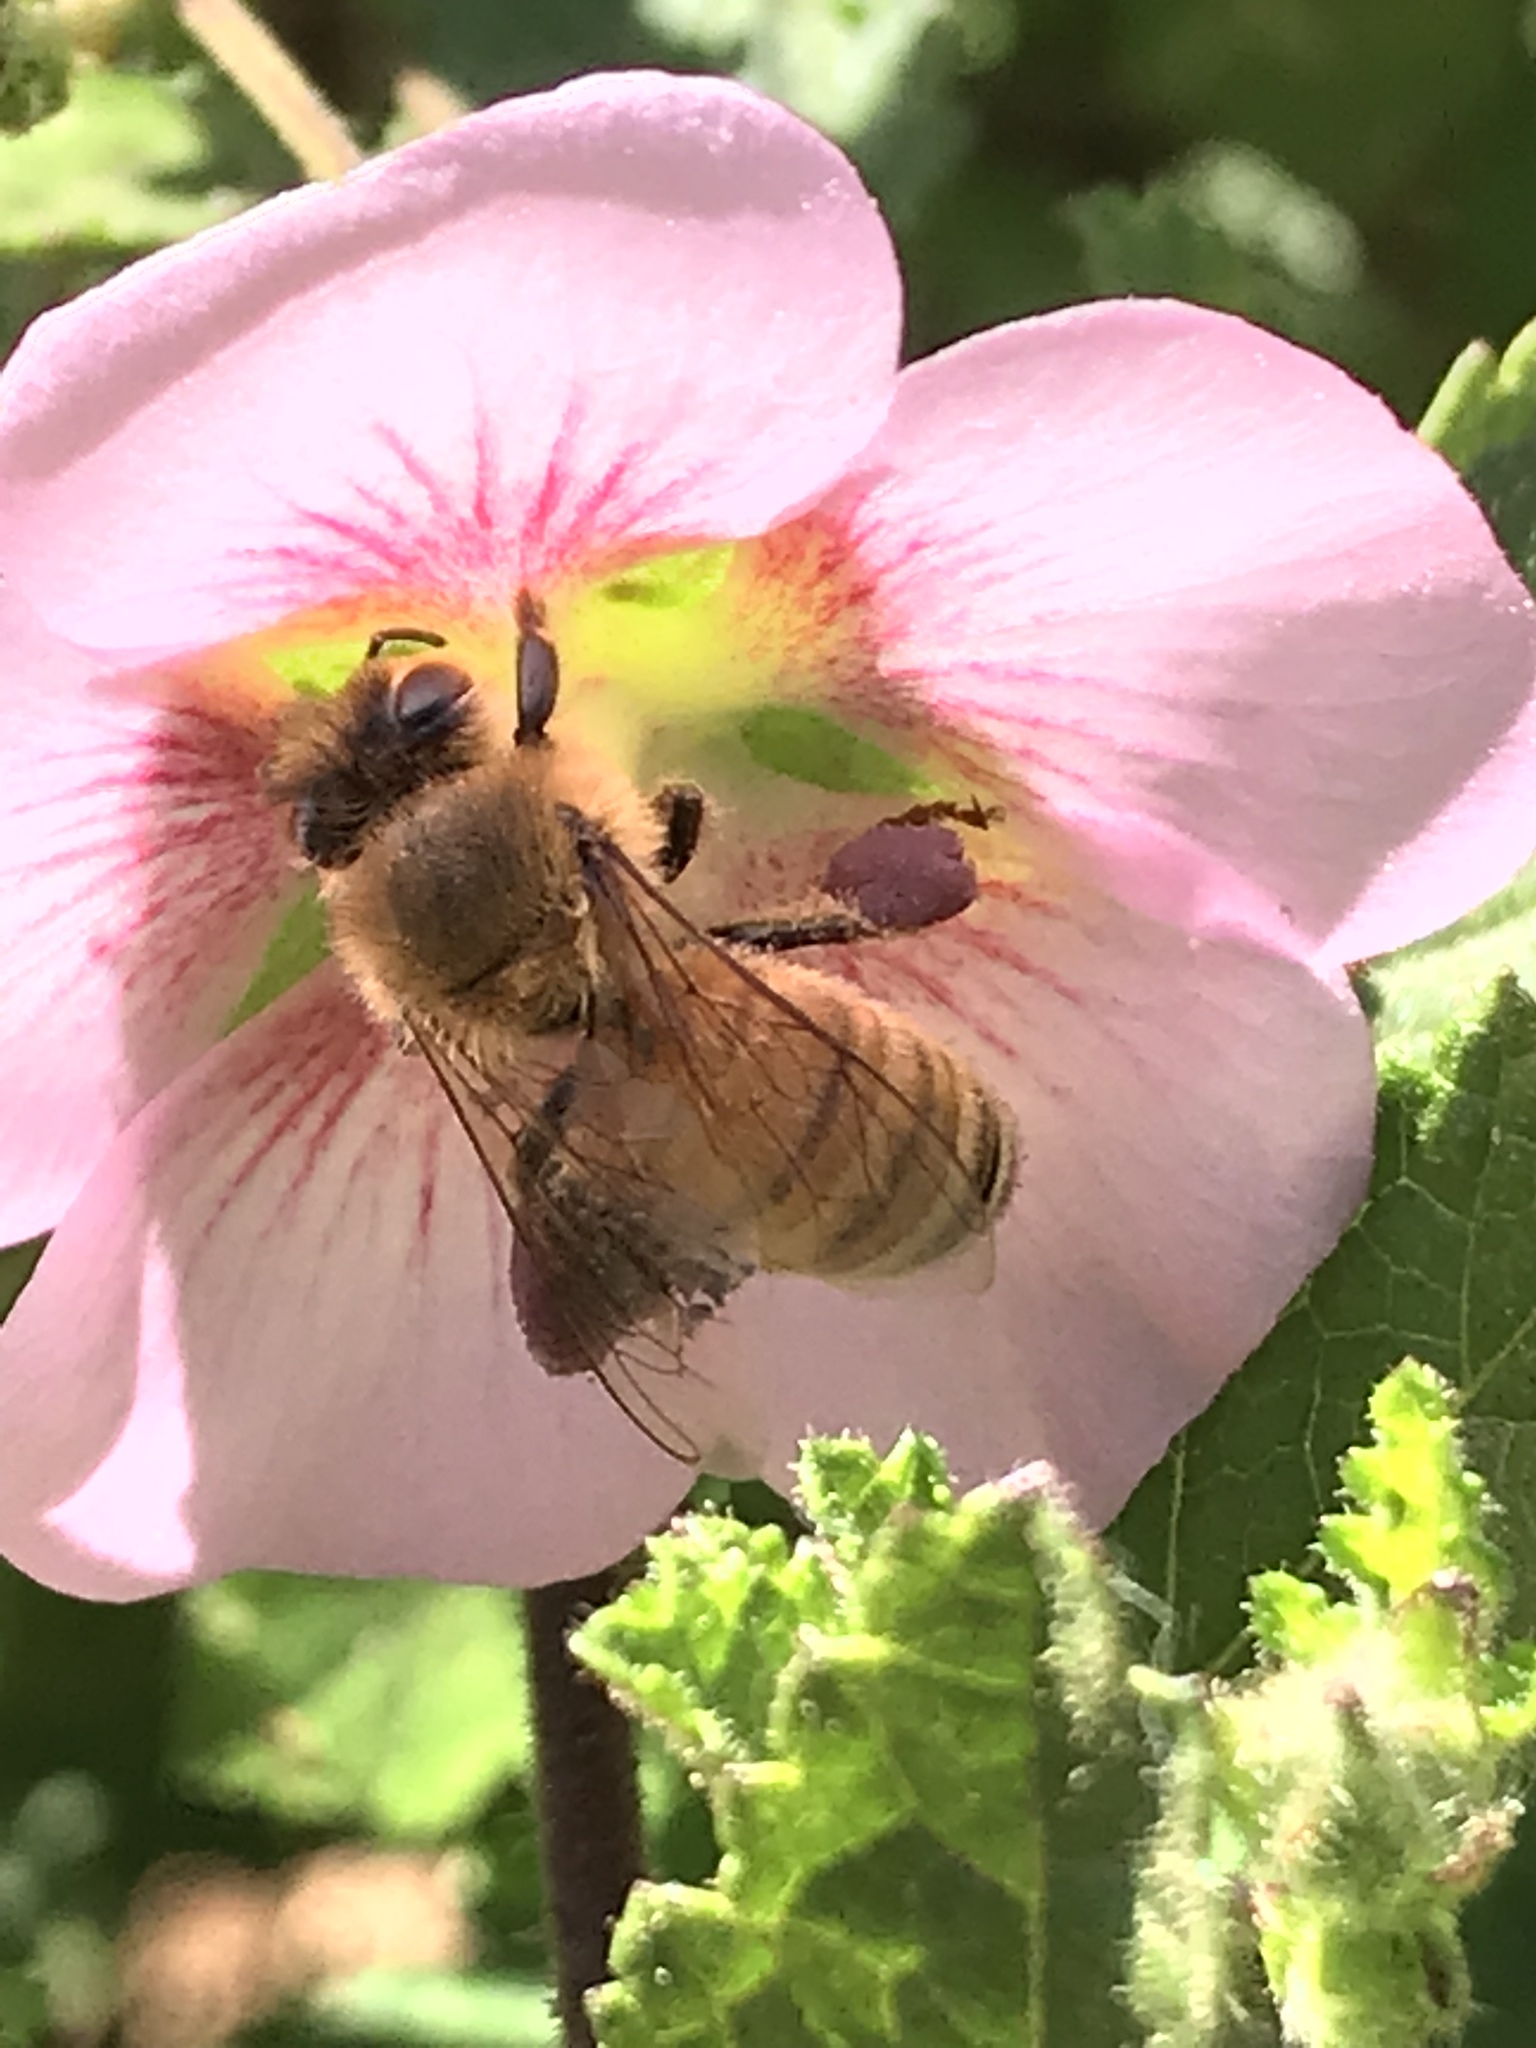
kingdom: Animalia
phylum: Arthropoda
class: Insecta
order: Hymenoptera
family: Apidae
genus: Apis
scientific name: Apis mellifera
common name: Honey bee
